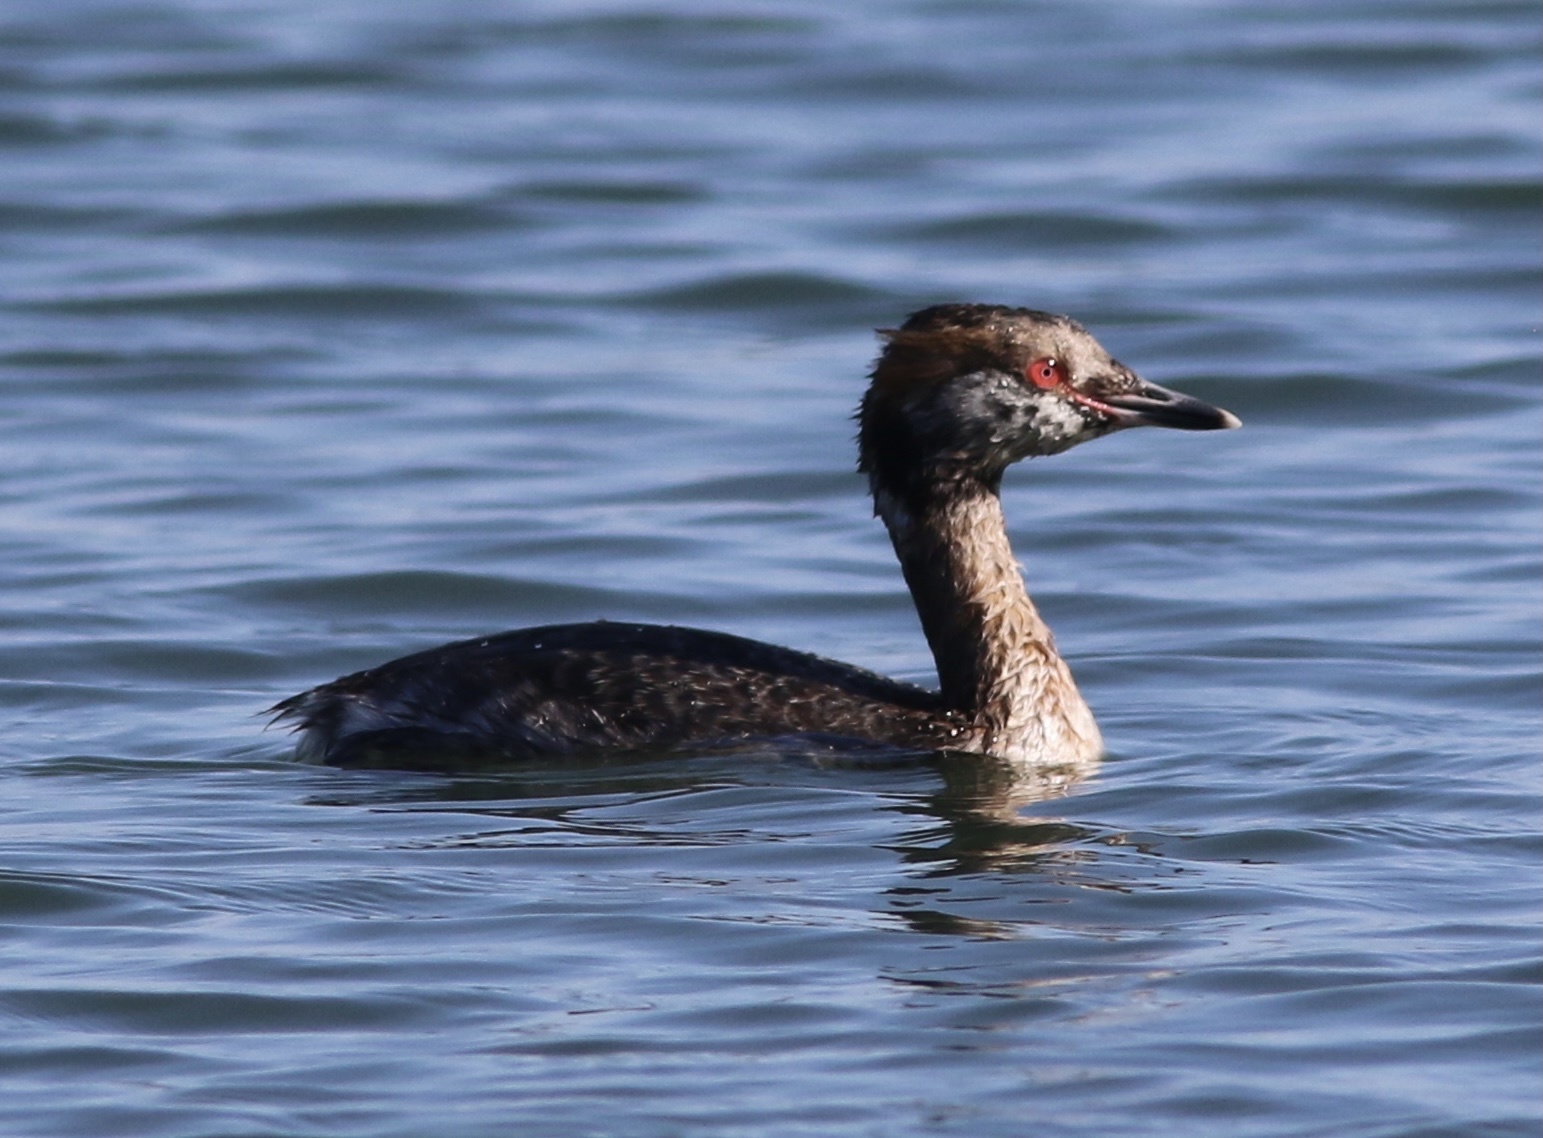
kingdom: Animalia
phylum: Chordata
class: Aves
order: Podicipediformes
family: Podicipedidae
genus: Podiceps
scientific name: Podiceps auritus
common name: Horned grebe
